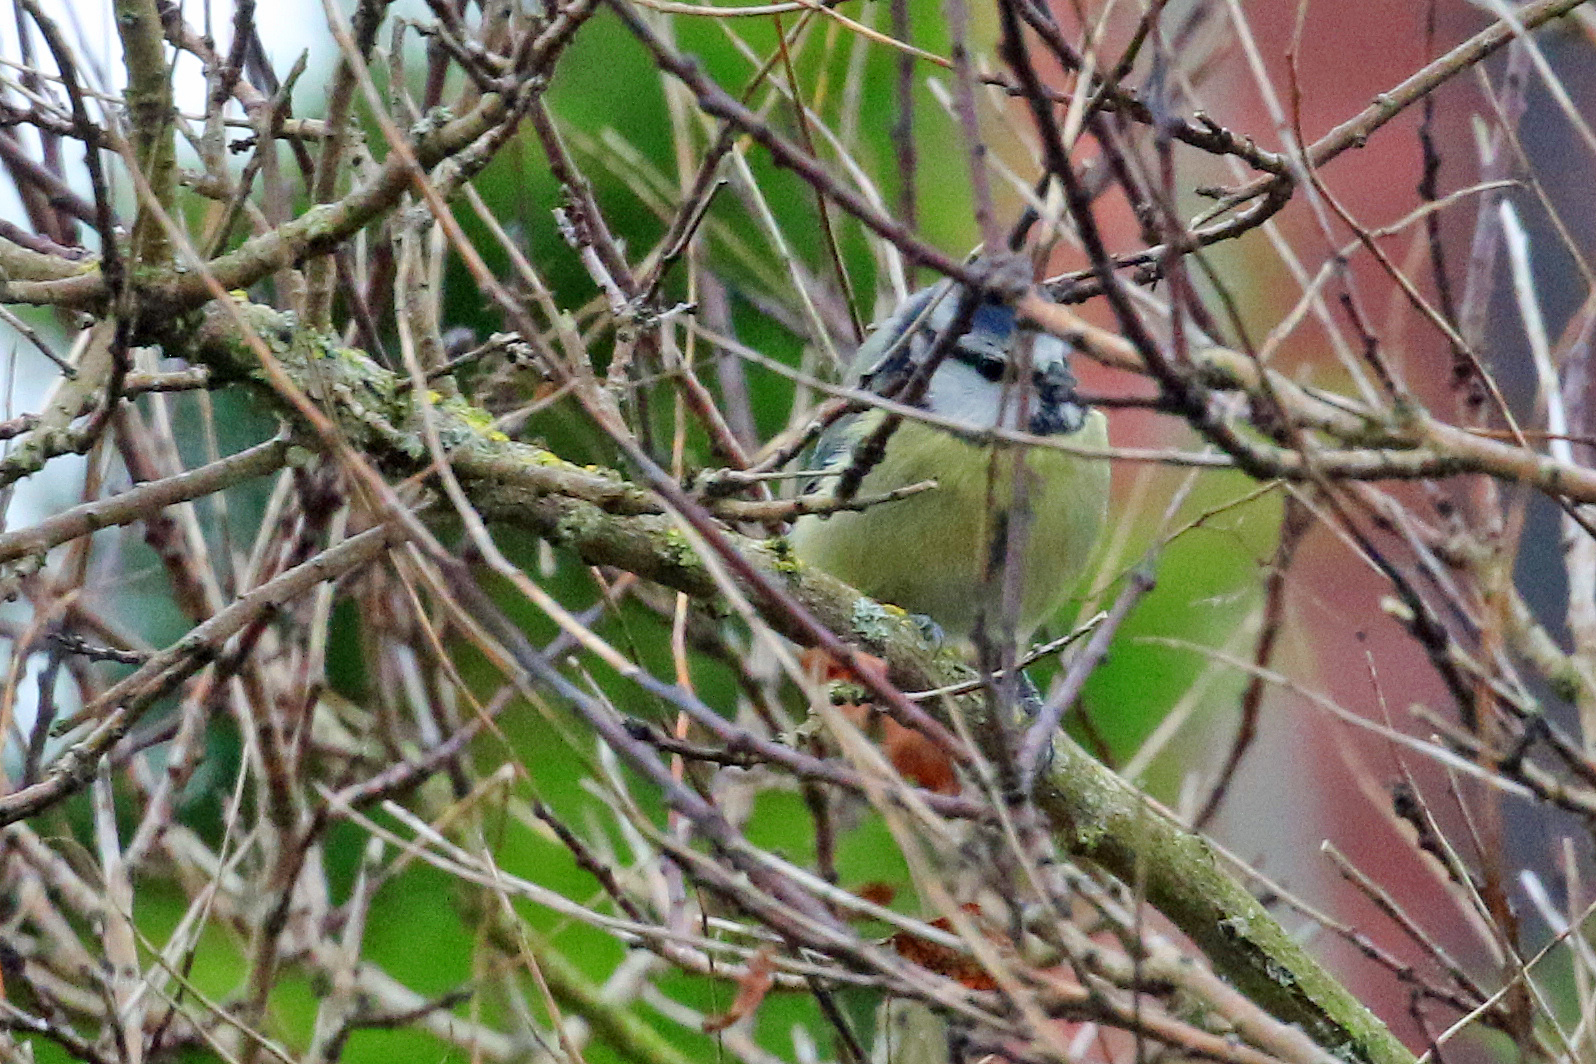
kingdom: Animalia
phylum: Chordata
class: Aves
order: Passeriformes
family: Paridae
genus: Cyanistes
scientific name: Cyanistes caeruleus
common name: Eurasian blue tit
